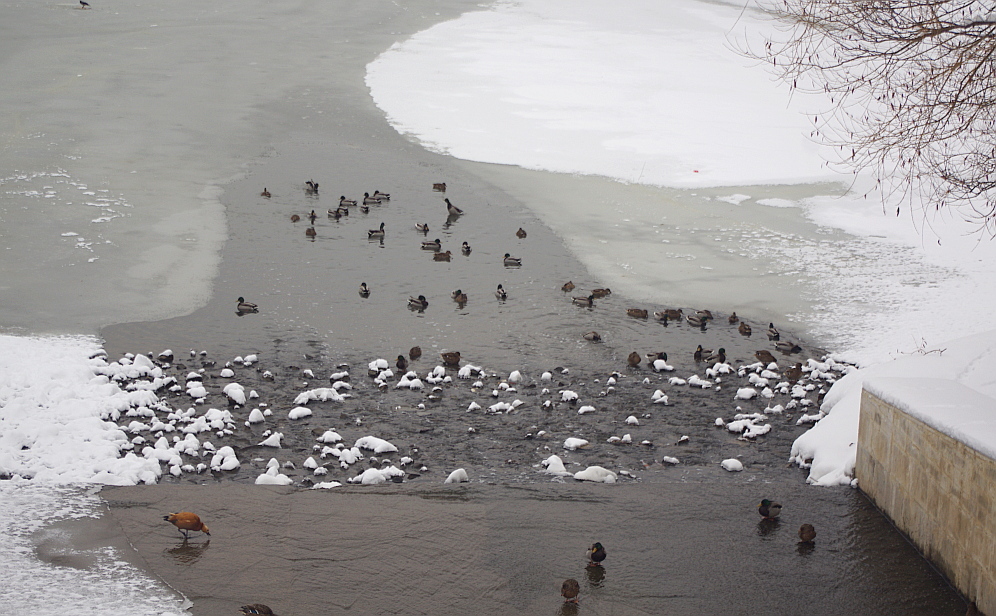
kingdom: Animalia
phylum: Chordata
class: Aves
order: Anseriformes
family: Anatidae
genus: Anas
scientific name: Anas platyrhynchos
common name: Mallard
